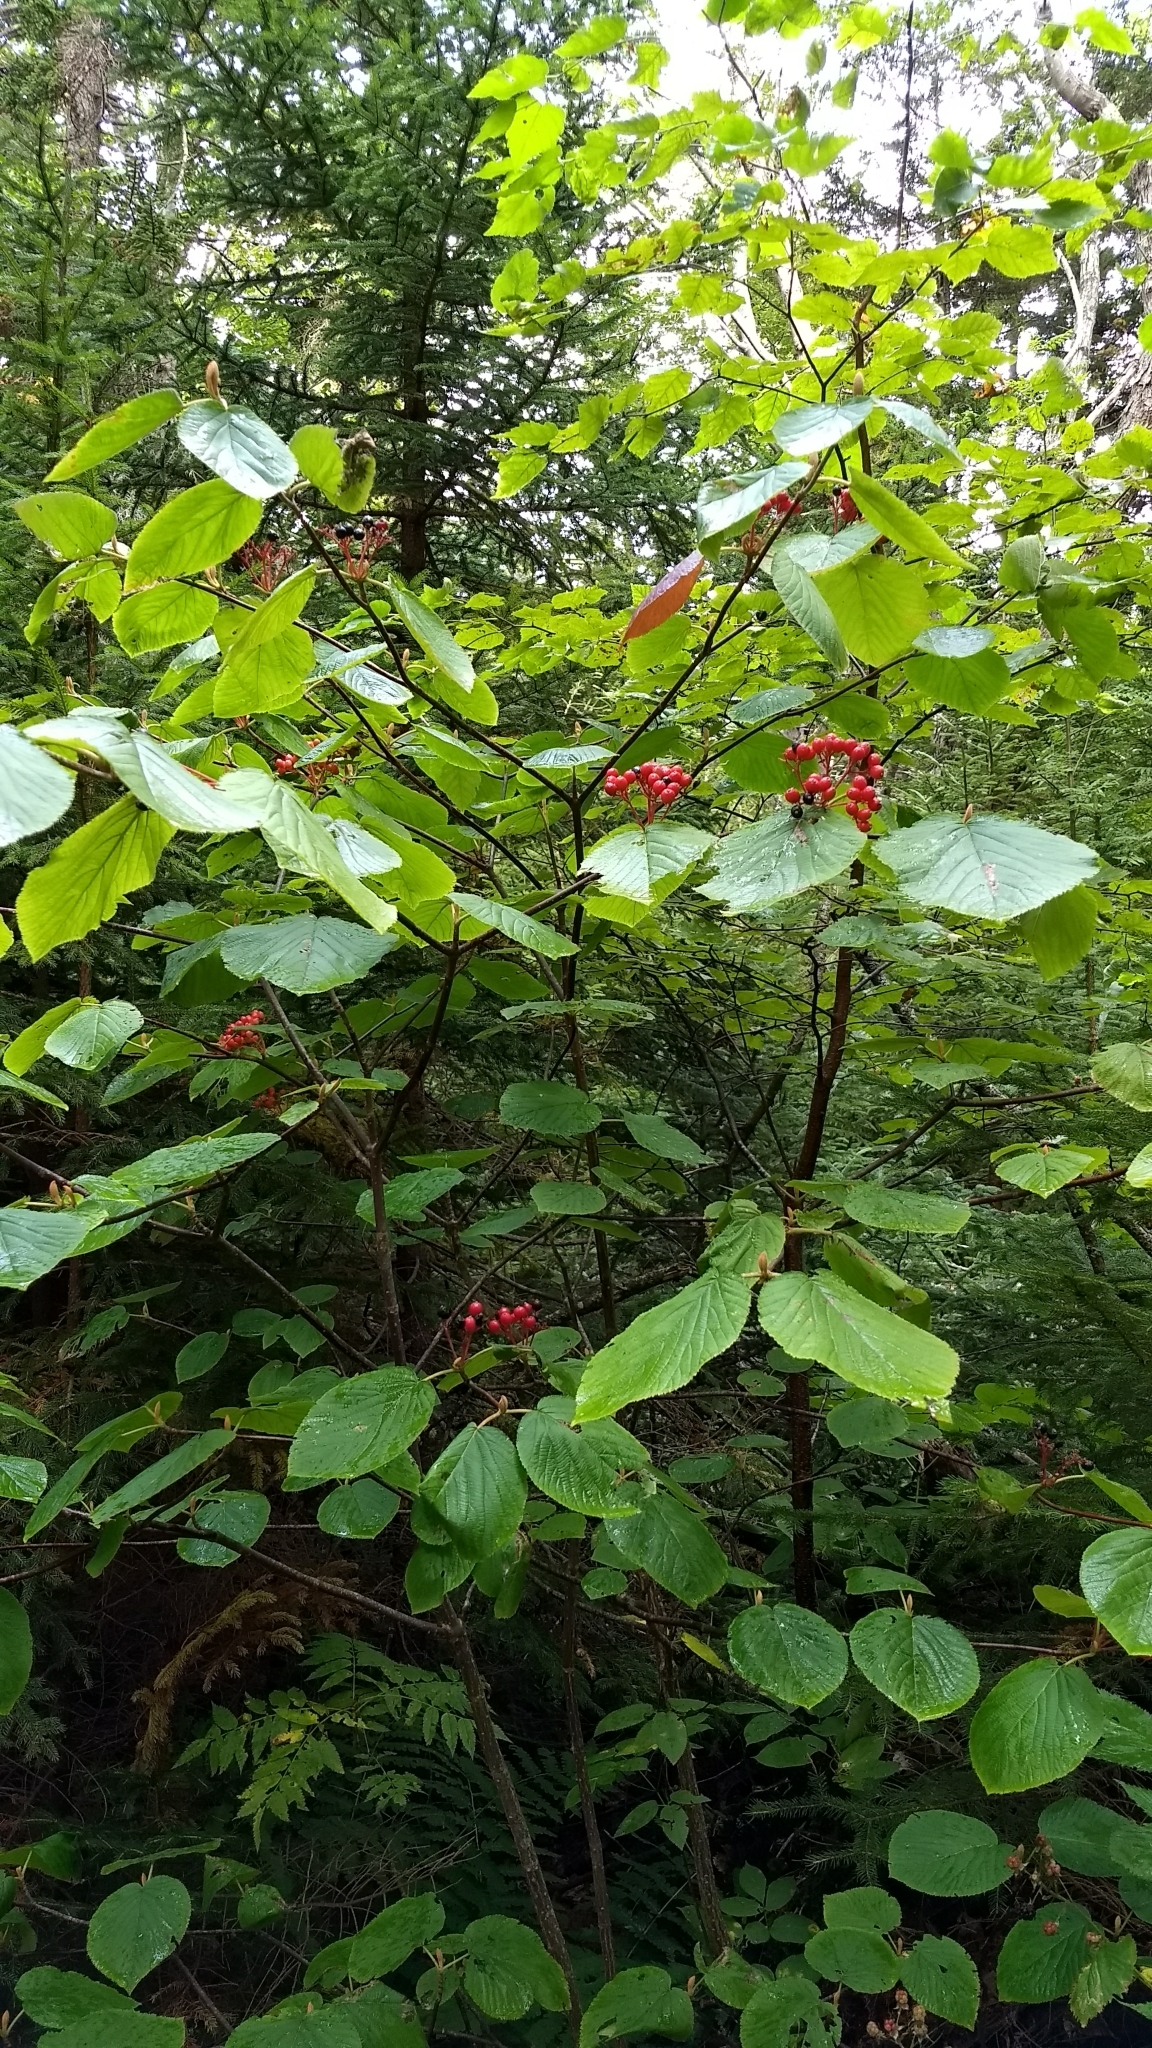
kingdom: Plantae
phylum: Tracheophyta
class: Magnoliopsida
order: Dipsacales
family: Viburnaceae
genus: Viburnum
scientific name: Viburnum lantanoides
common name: Hobblebush
